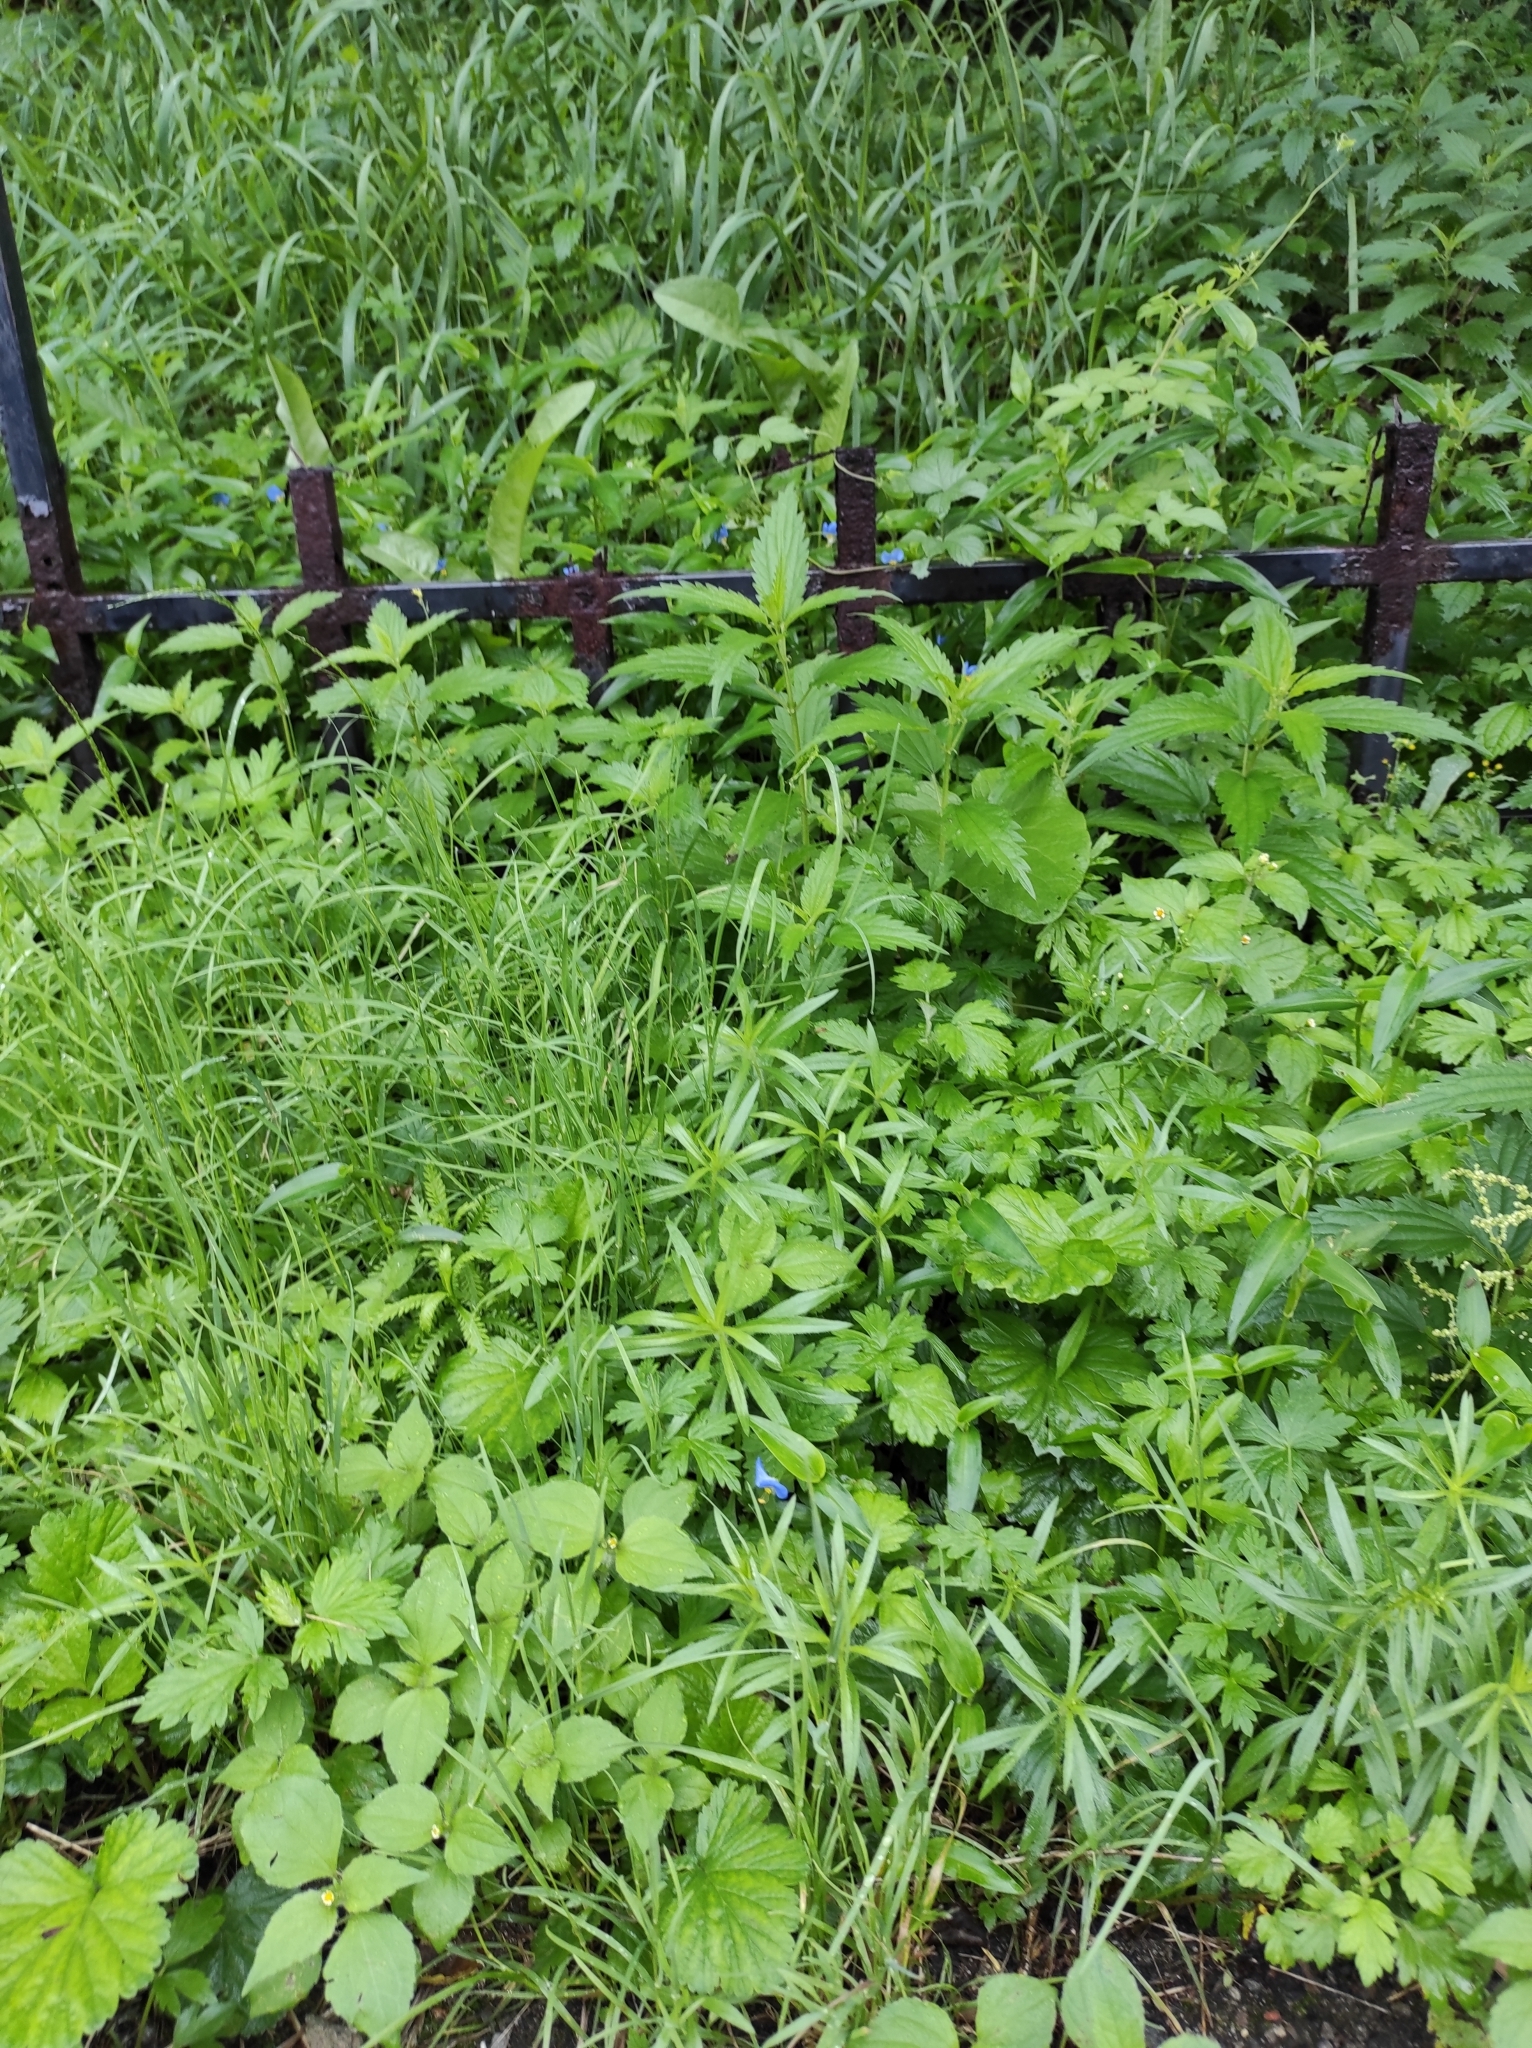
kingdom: Plantae
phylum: Tracheophyta
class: Liliopsida
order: Commelinales
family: Commelinaceae
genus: Commelina
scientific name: Commelina communis
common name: Asiatic dayflower
